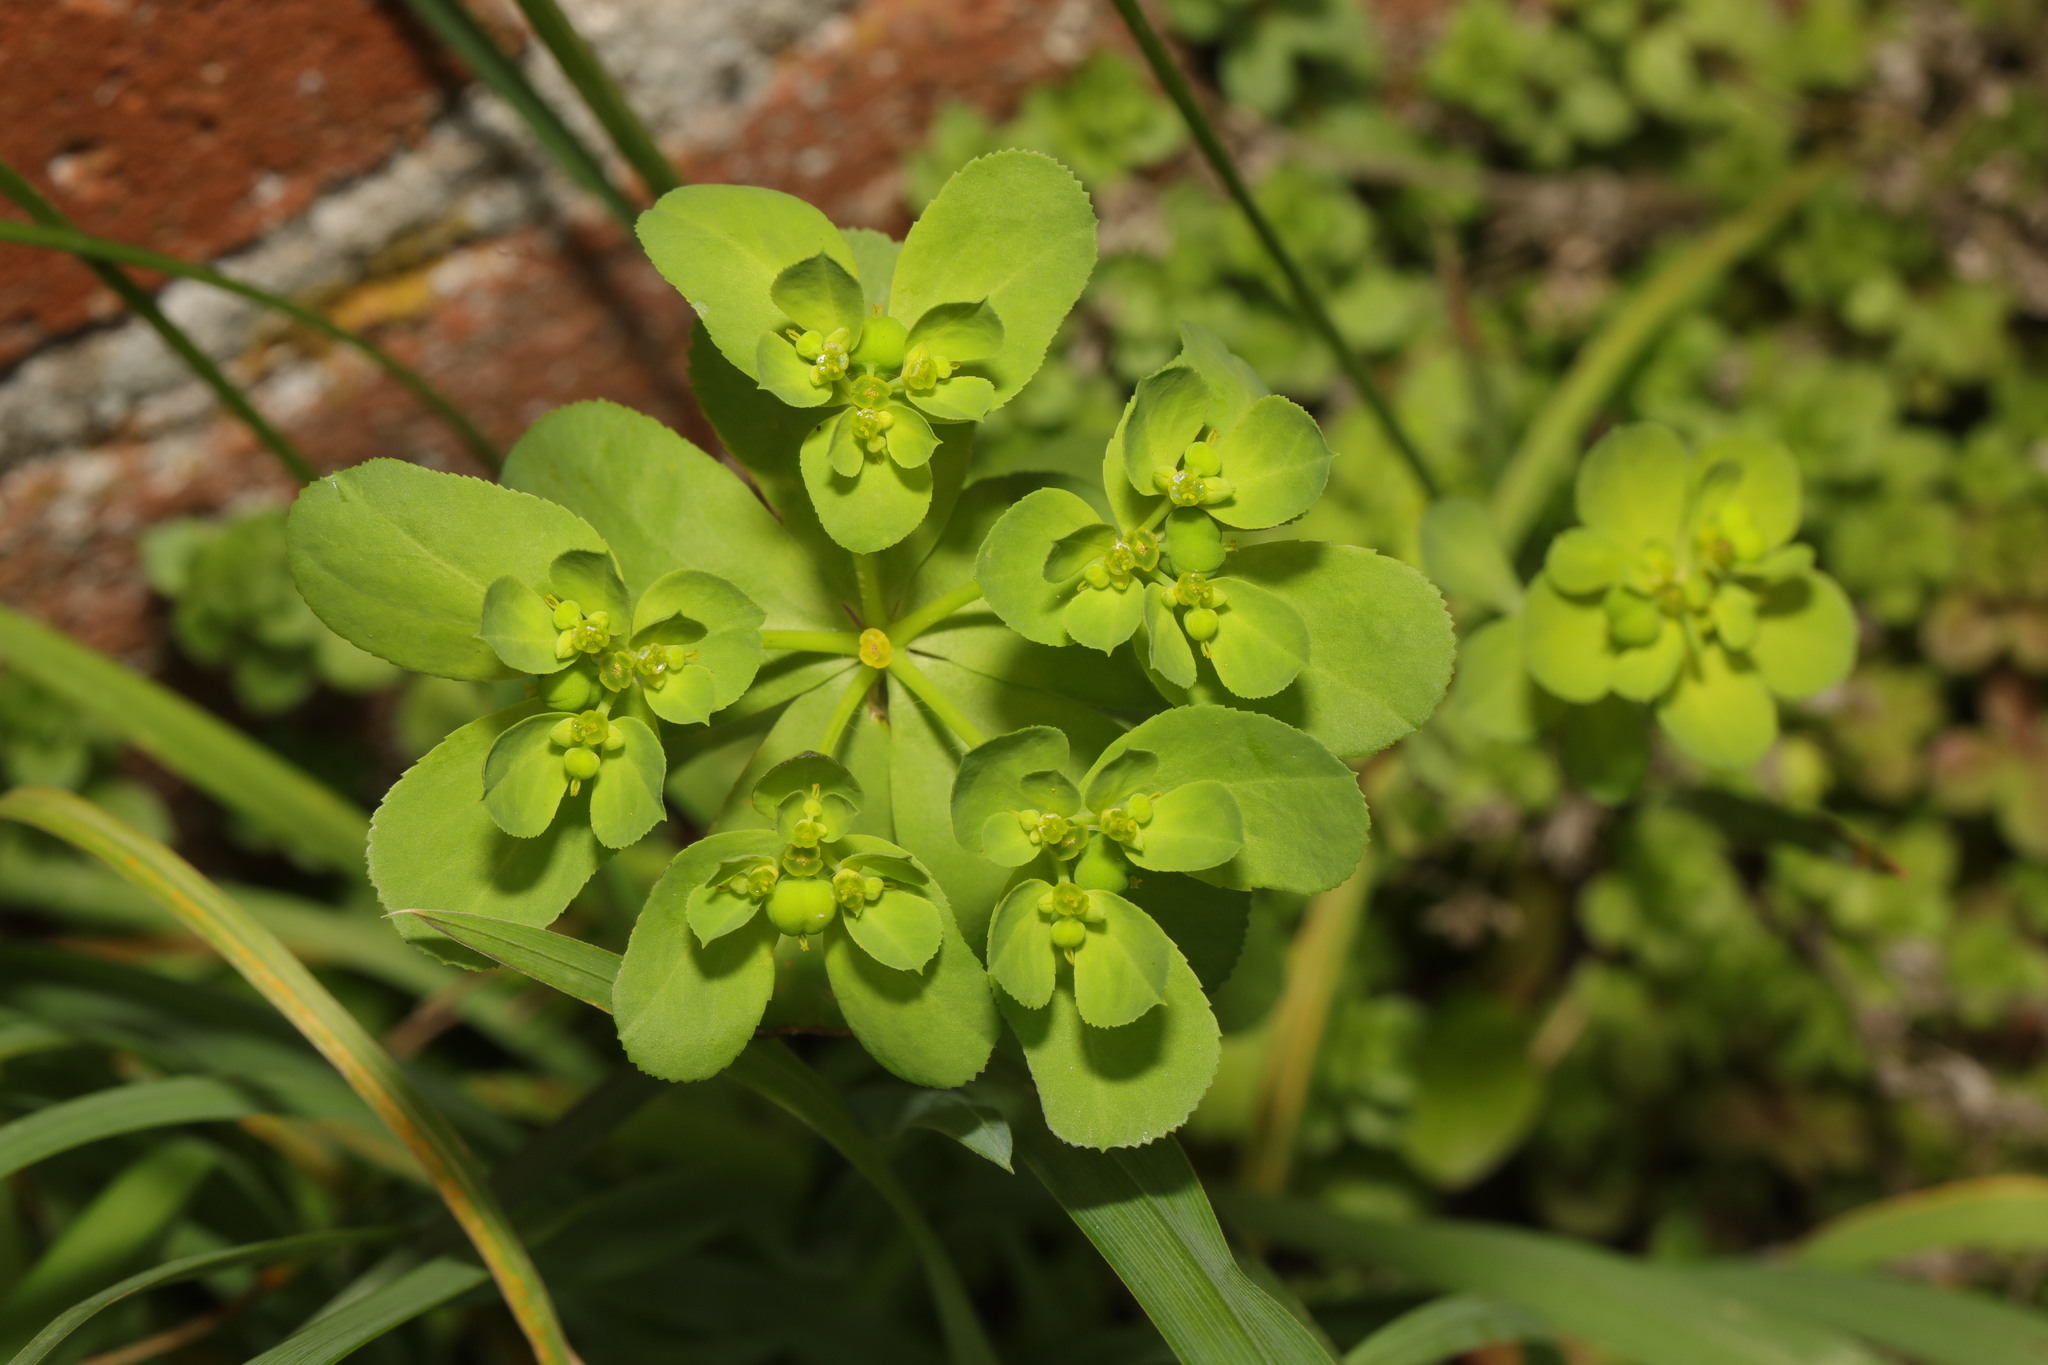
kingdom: Plantae
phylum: Tracheophyta
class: Magnoliopsida
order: Malpighiales
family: Euphorbiaceae
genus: Euphorbia
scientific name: Euphorbia helioscopia
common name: Sun spurge
